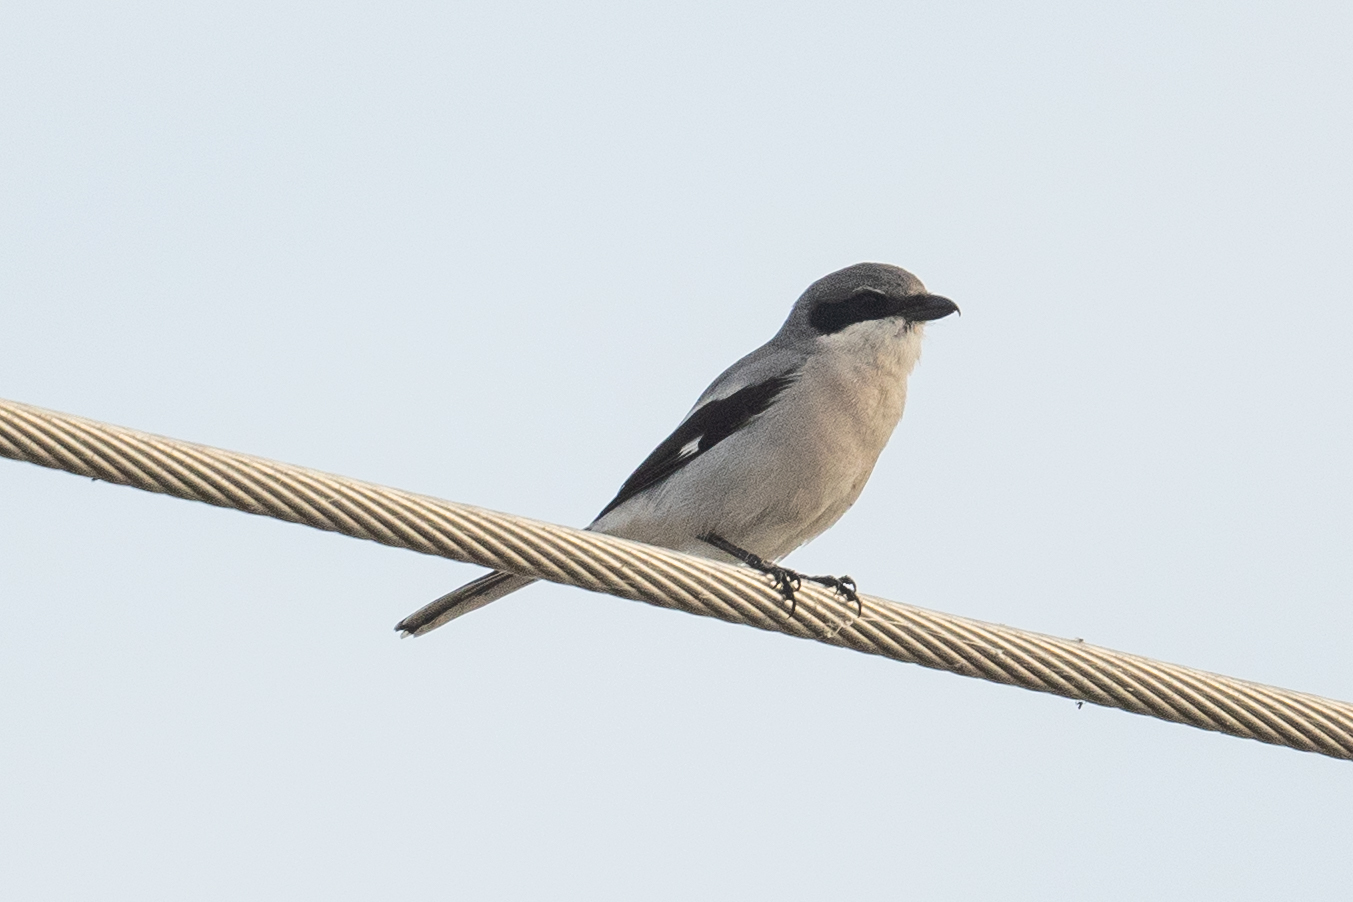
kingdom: Animalia
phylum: Chordata
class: Aves
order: Passeriformes
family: Laniidae
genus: Lanius
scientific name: Lanius ludovicianus
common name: Loggerhead shrike
